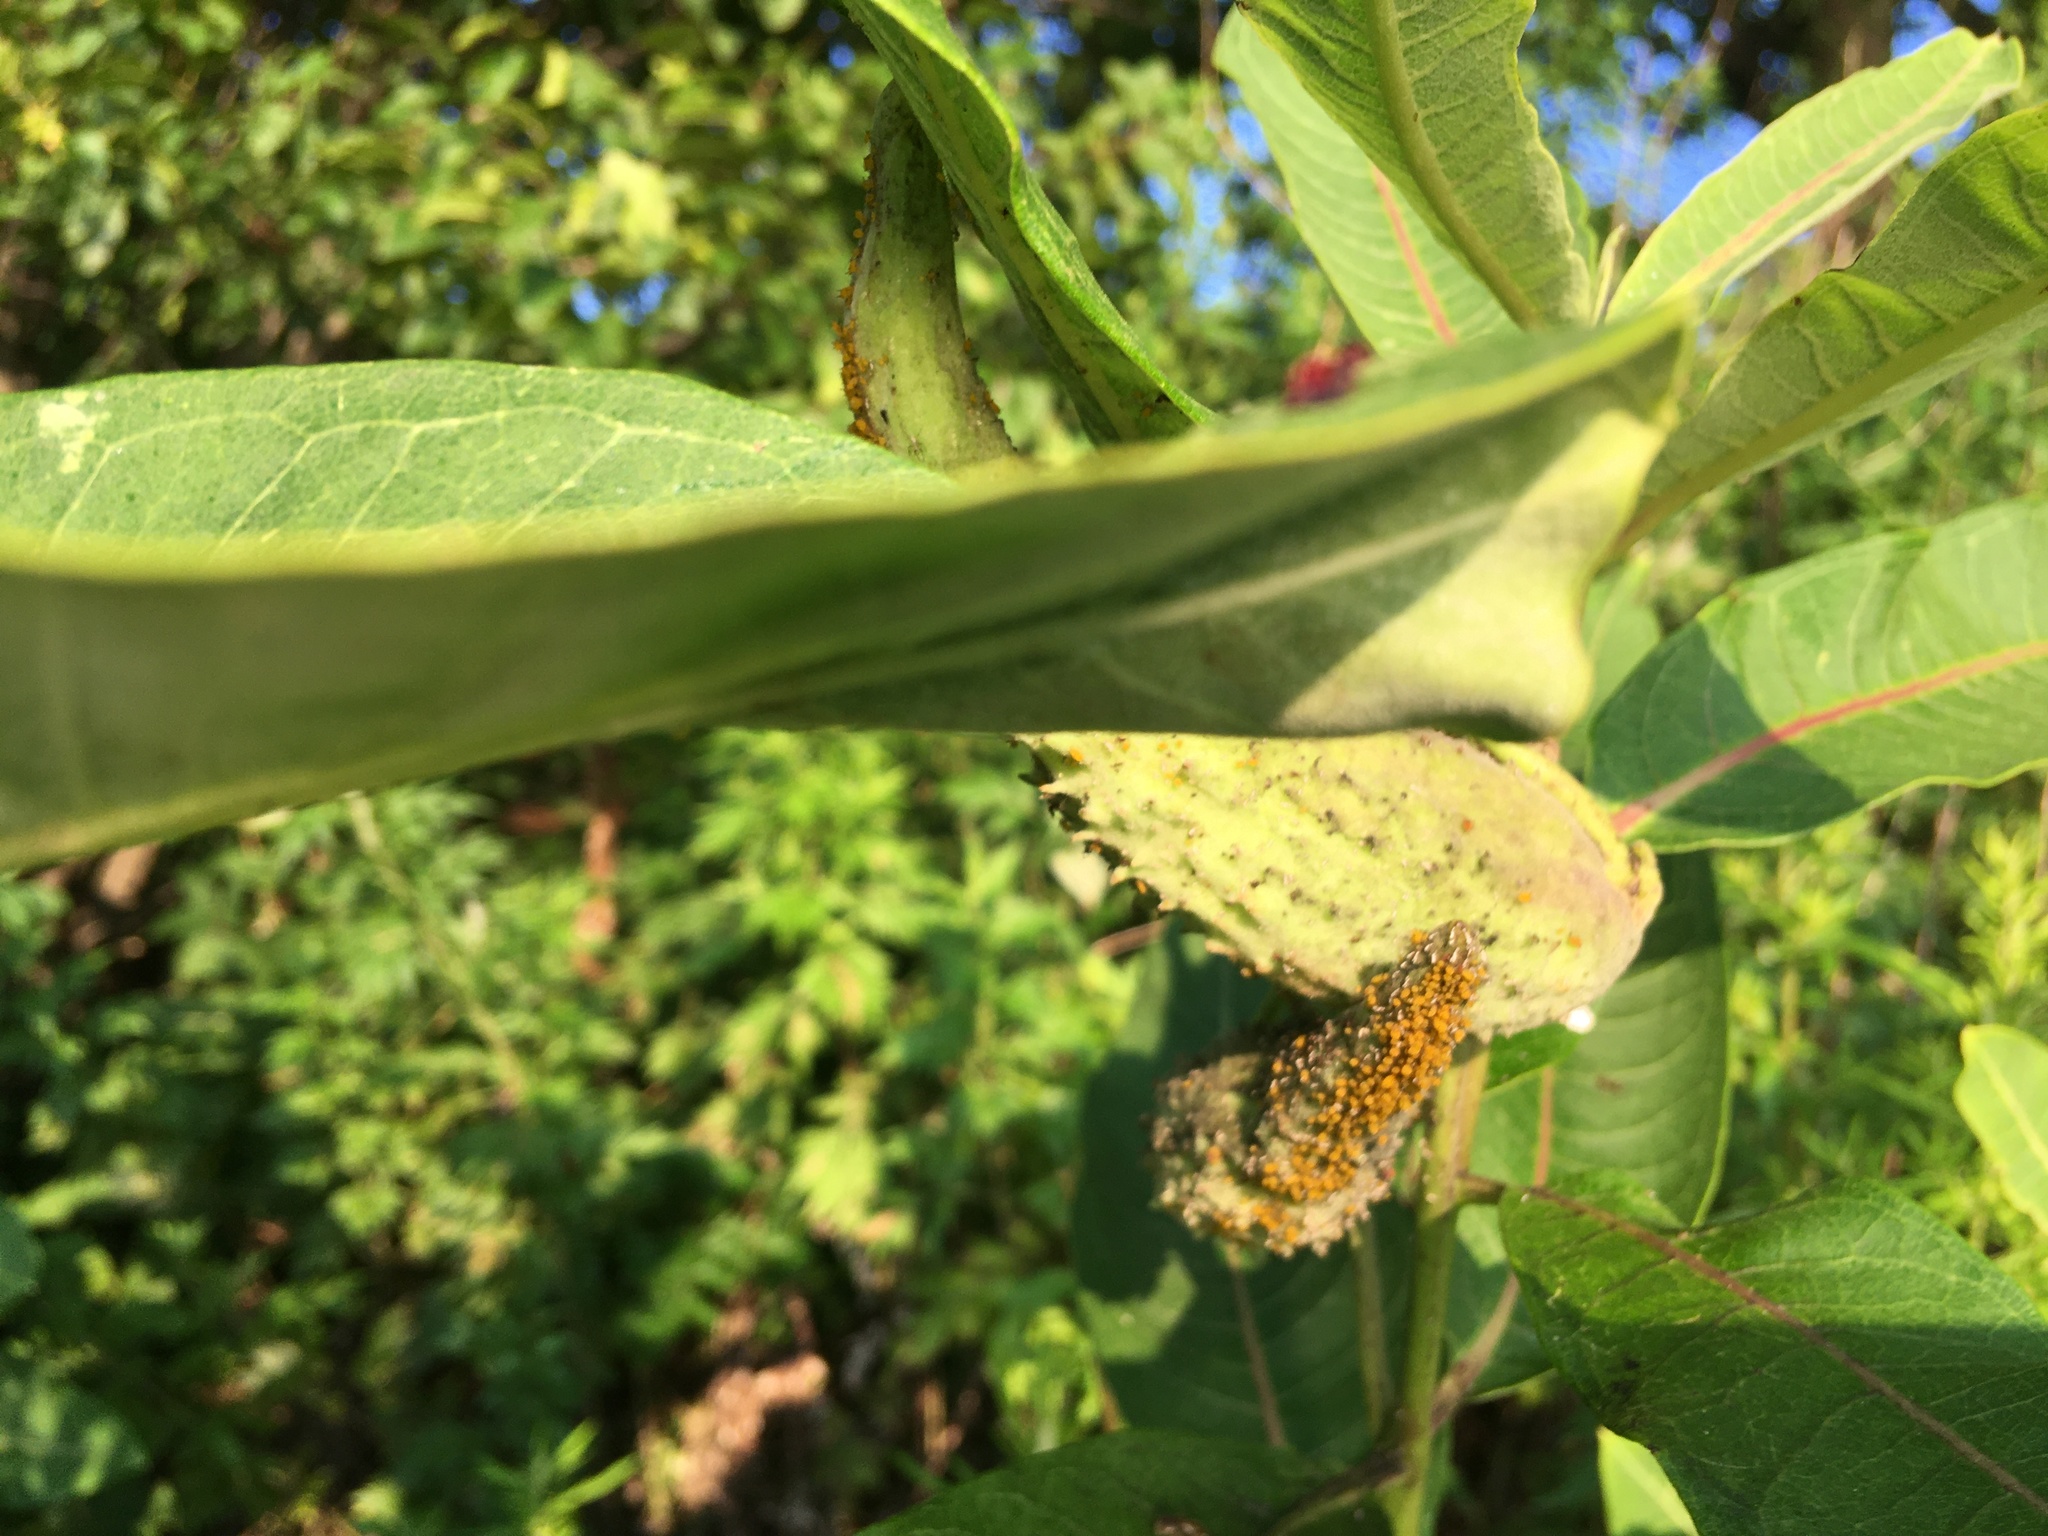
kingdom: Plantae
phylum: Tracheophyta
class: Magnoliopsida
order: Gentianales
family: Apocynaceae
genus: Asclepias
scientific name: Asclepias syriaca
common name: Common milkweed
